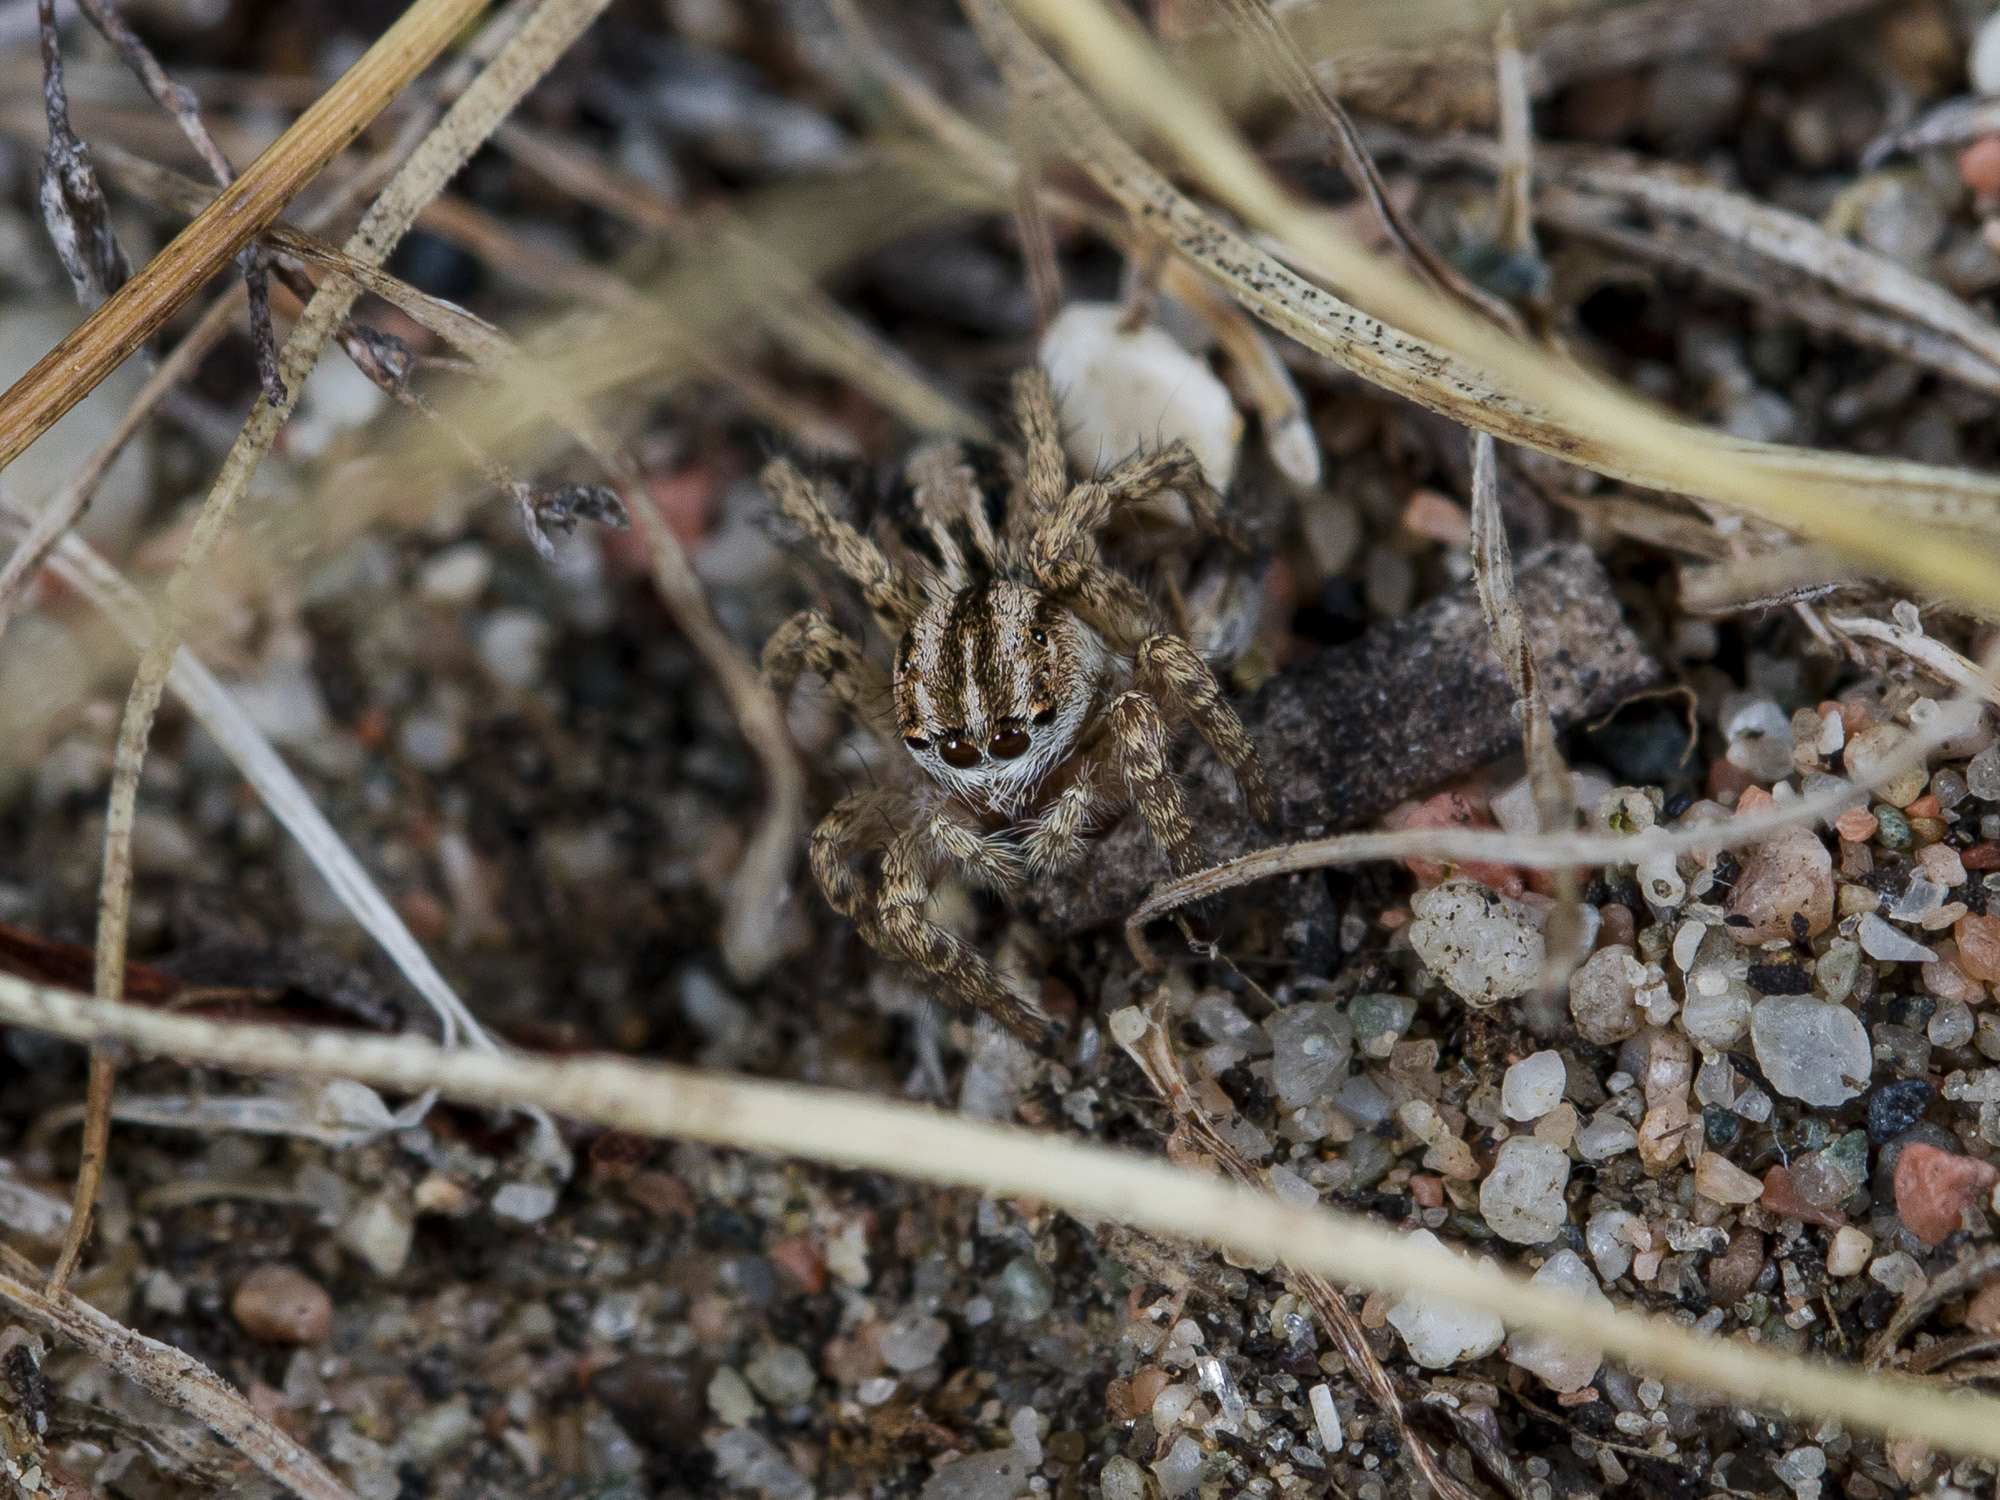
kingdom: Animalia
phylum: Arthropoda
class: Arachnida
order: Araneae
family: Salticidae
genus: Aelurillus
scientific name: Aelurillus m-nigrum
